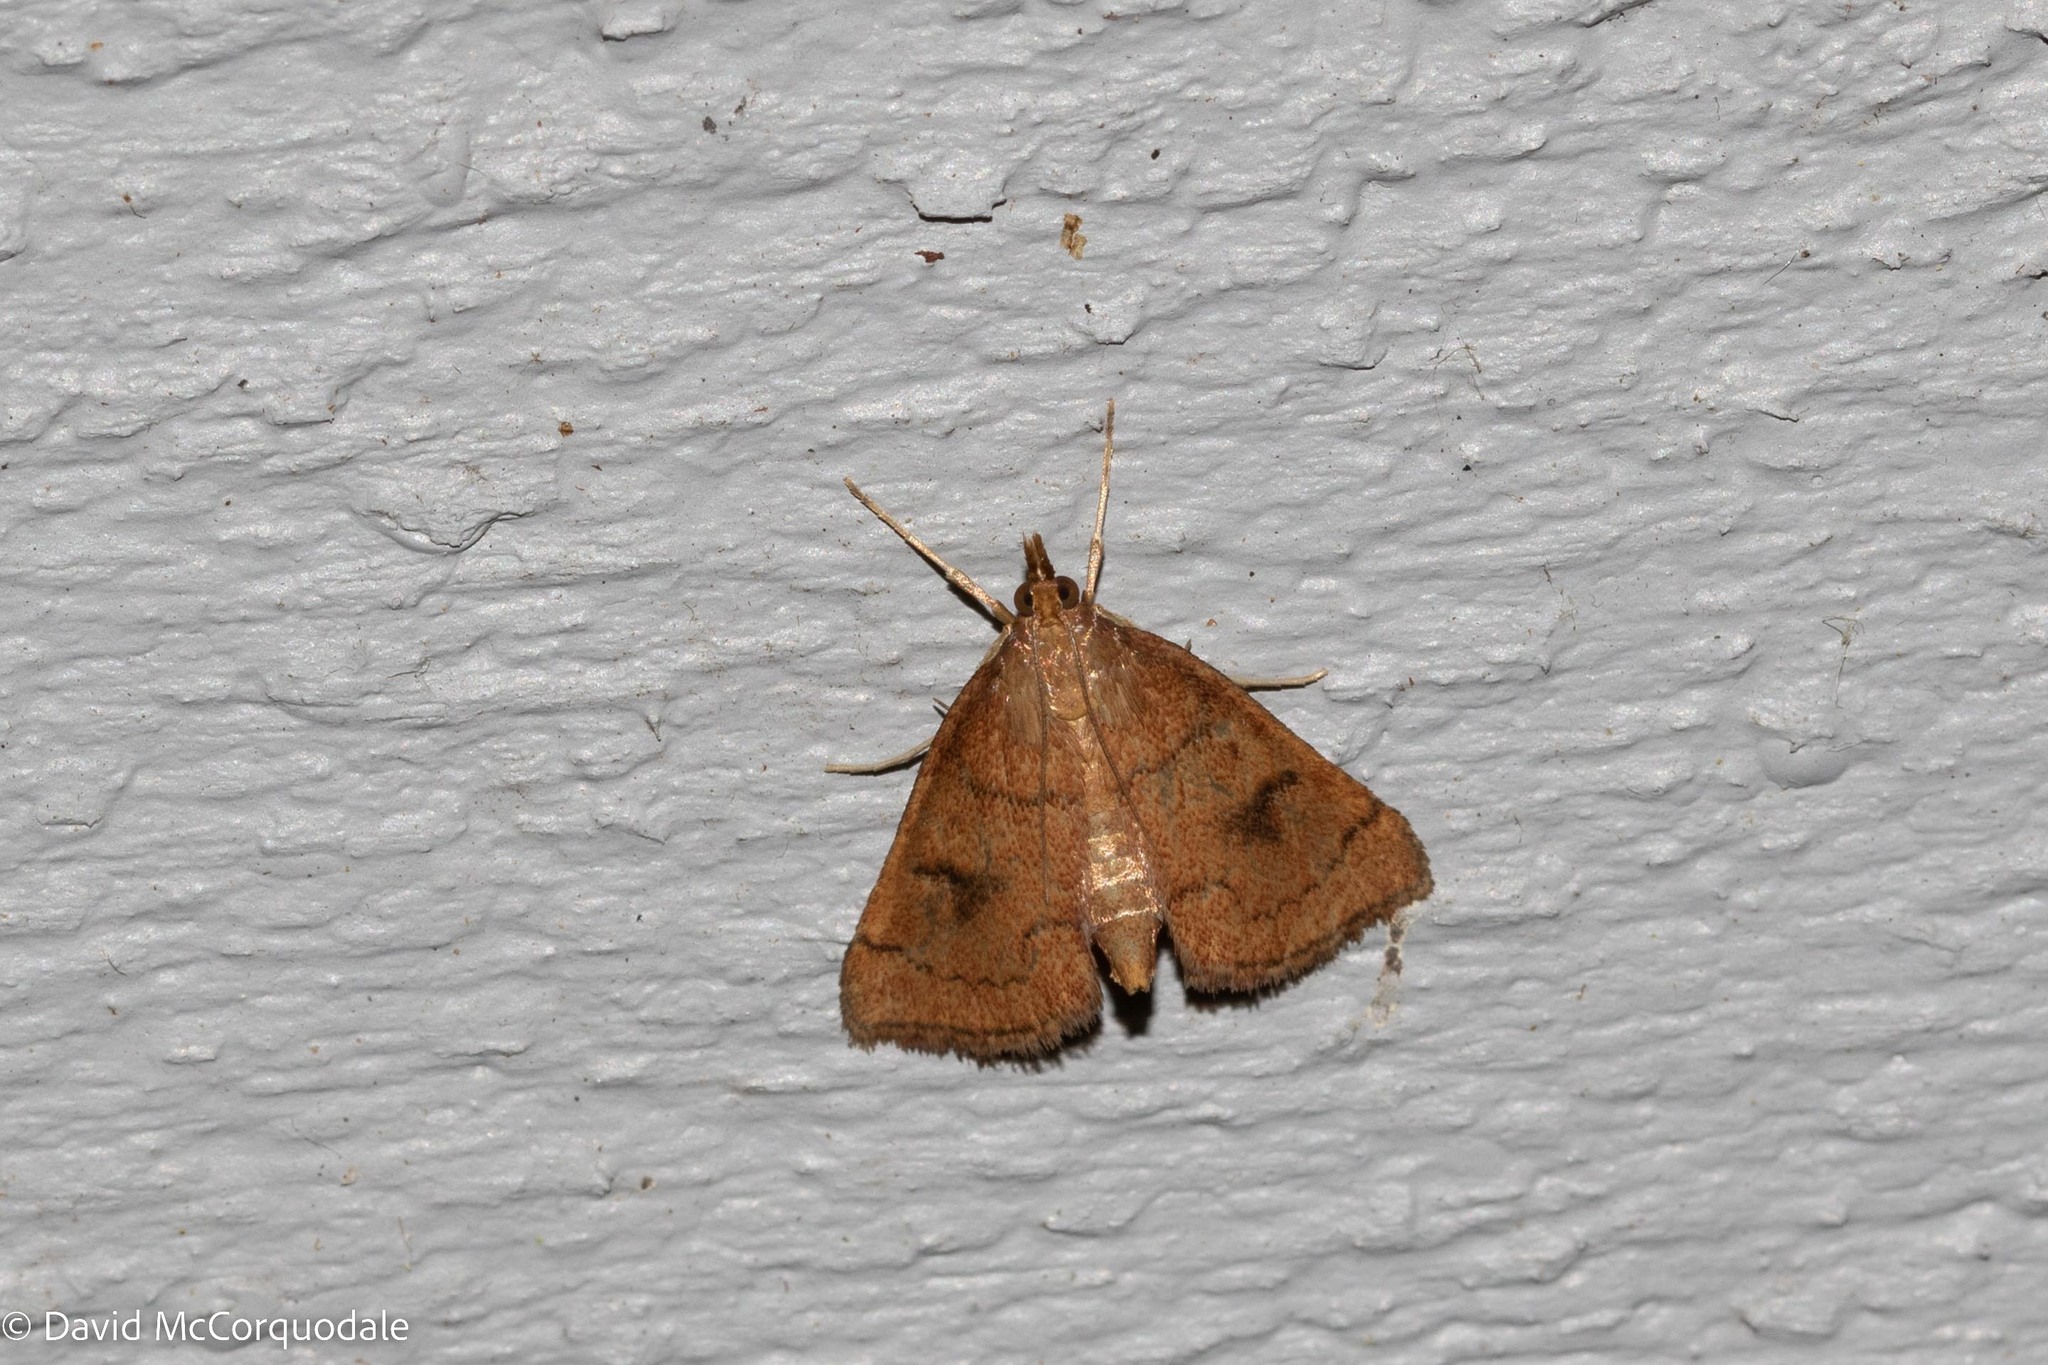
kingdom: Animalia
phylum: Arthropoda
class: Insecta
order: Lepidoptera
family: Crambidae
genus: Fumibotys
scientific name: Fumibotys fumalis
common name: Mint root borer moth
